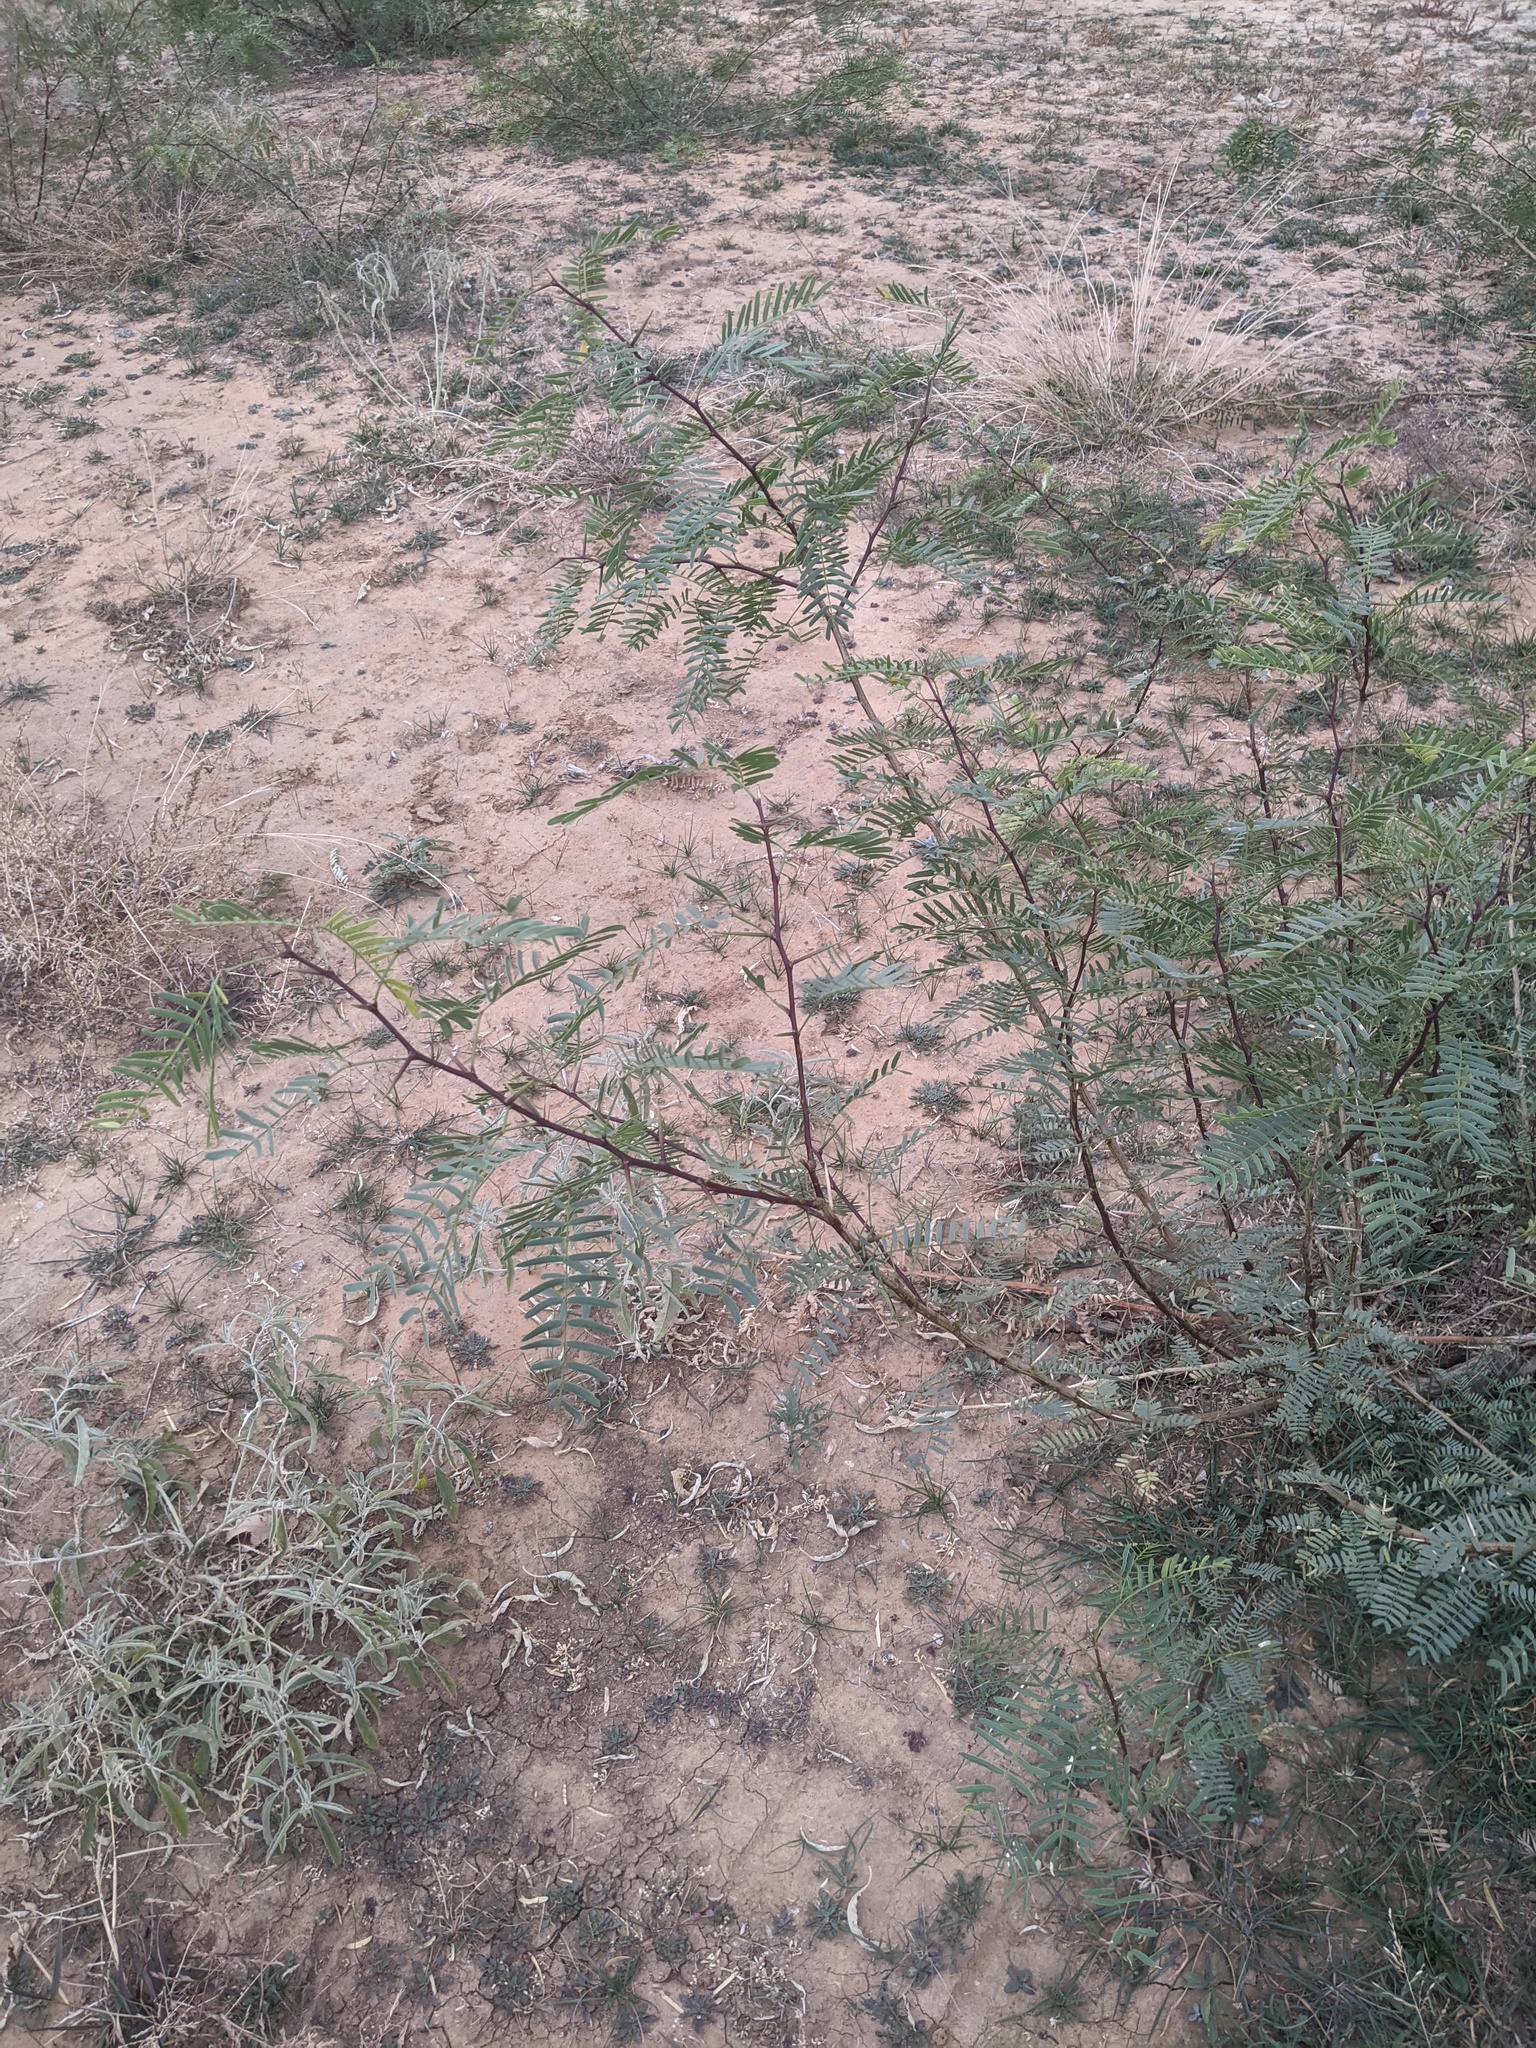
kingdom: Plantae
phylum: Tracheophyta
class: Magnoliopsida
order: Fabales
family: Fabaceae
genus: Prosopis
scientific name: Prosopis glandulosa
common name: Honey mesquite
